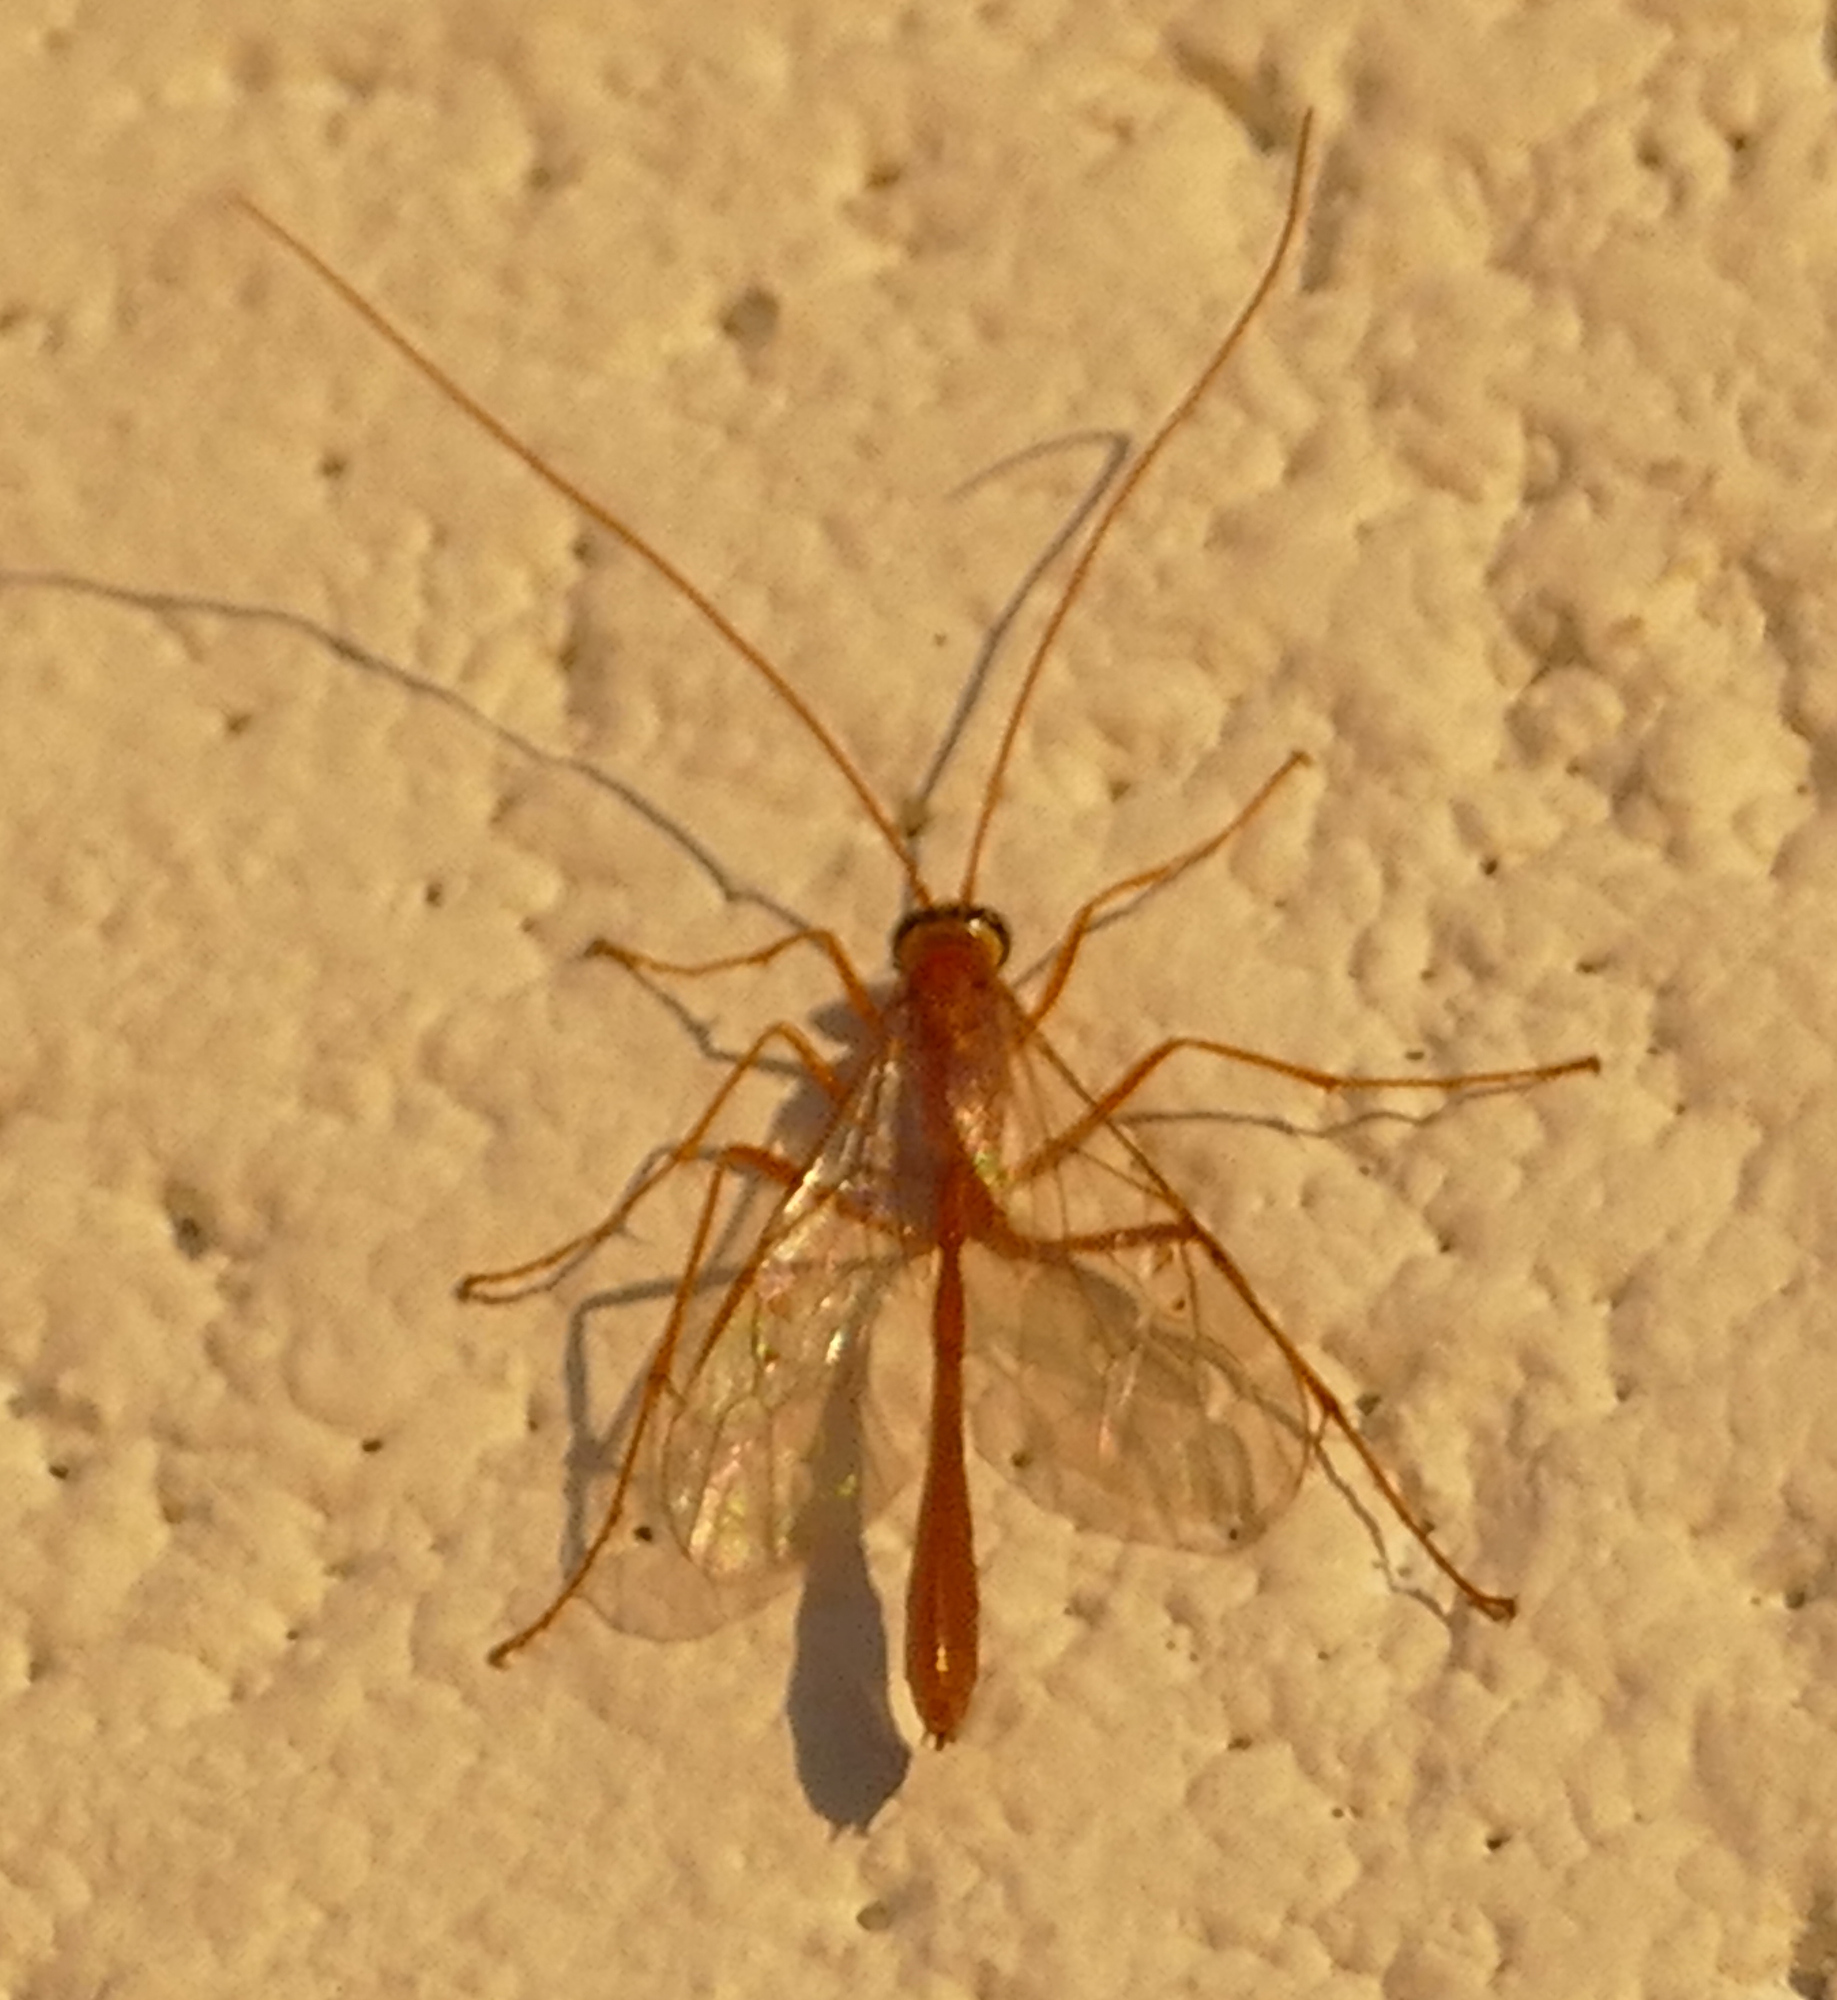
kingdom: Animalia
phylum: Arthropoda
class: Insecta
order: Hymenoptera
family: Ichneumonidae
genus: Enicospilus
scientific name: Enicospilus purgatus
